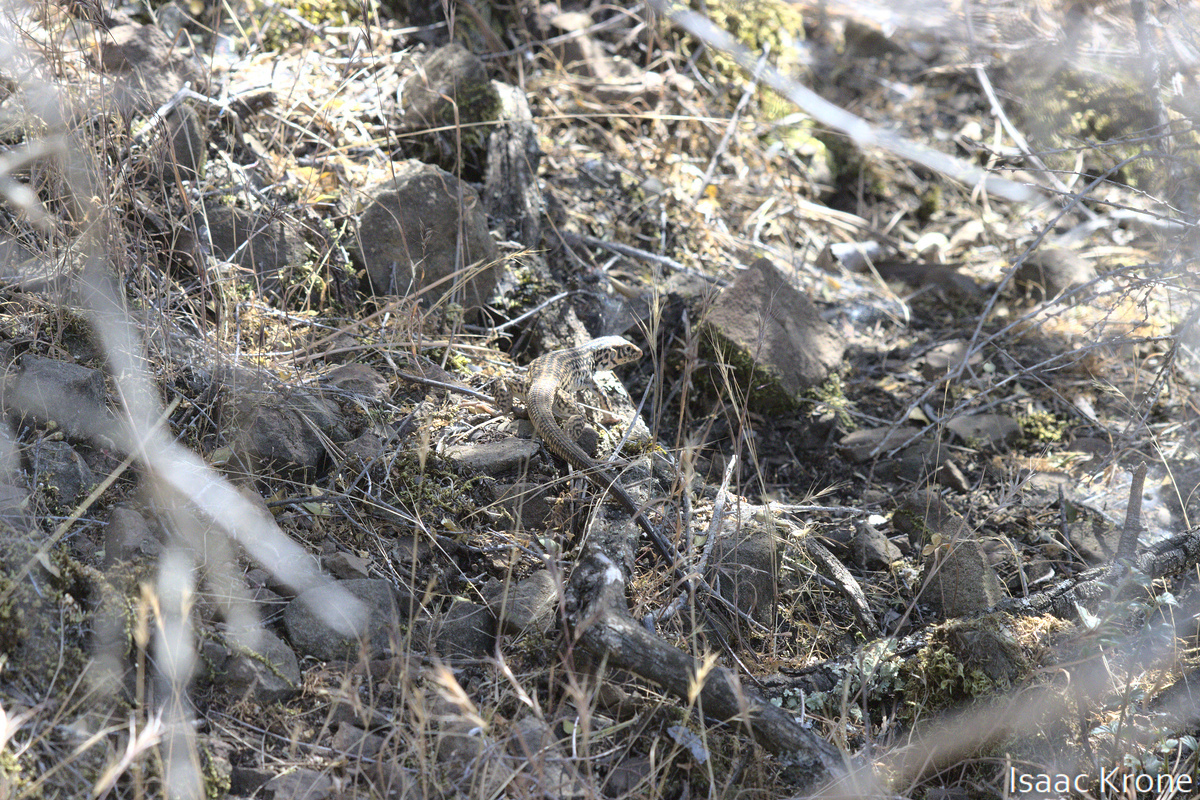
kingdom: Animalia
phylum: Chordata
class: Squamata
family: Teiidae
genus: Aspidoscelis
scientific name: Aspidoscelis tigris
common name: Tiger whiptail
